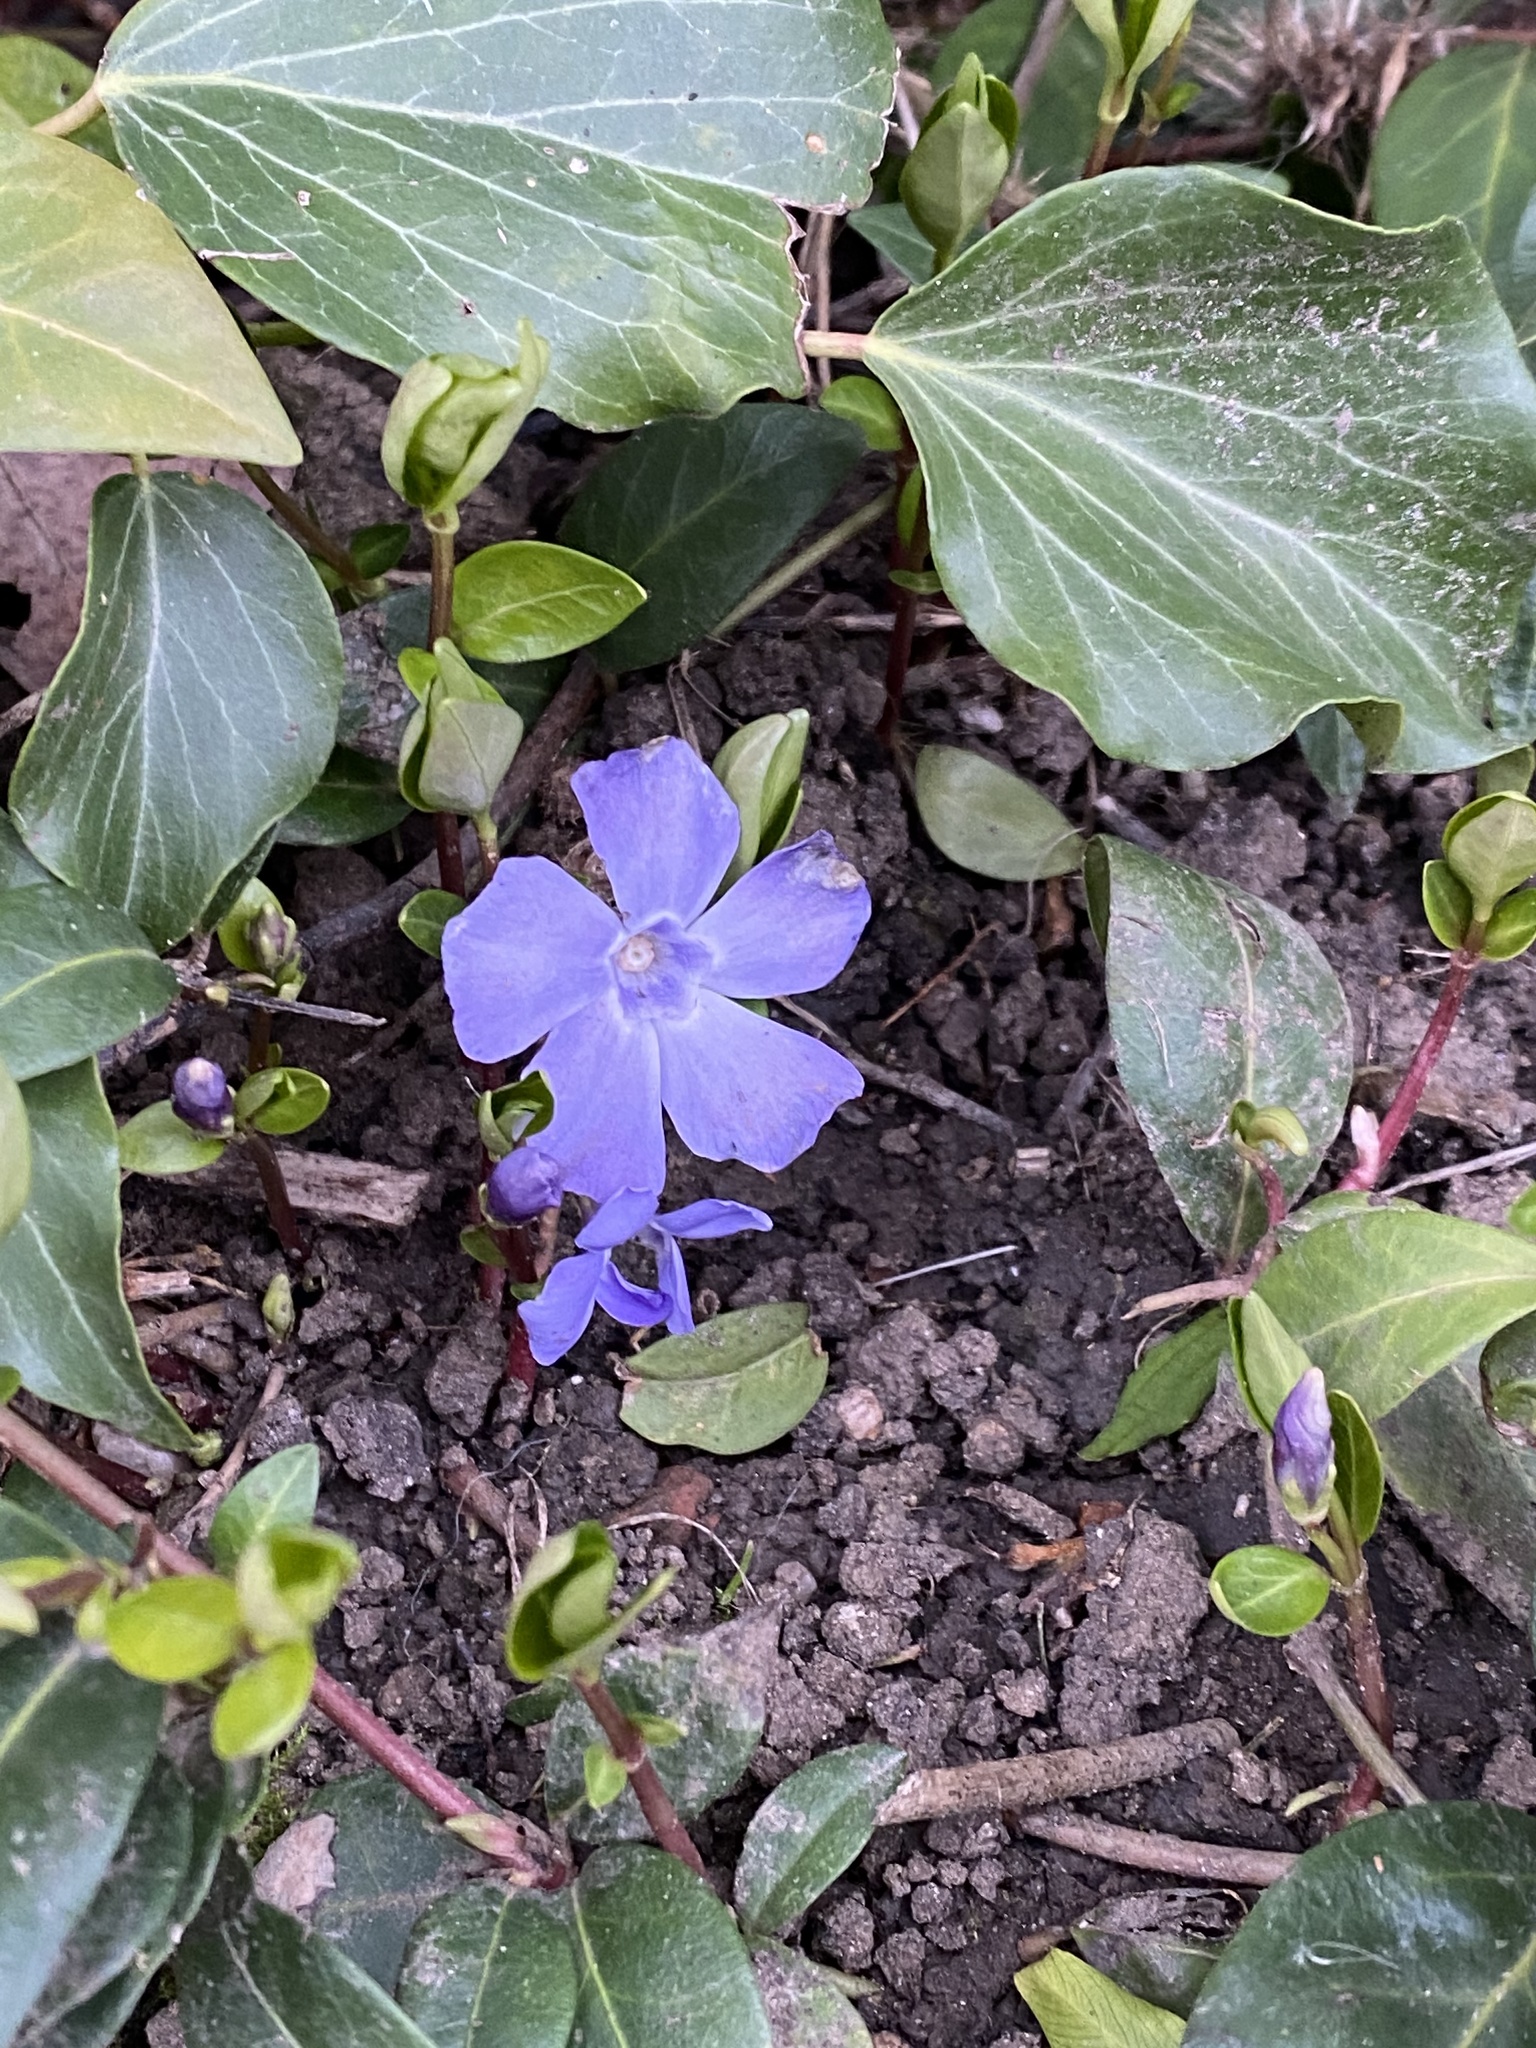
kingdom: Plantae
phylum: Tracheophyta
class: Magnoliopsida
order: Gentianales
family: Apocynaceae
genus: Vinca
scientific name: Vinca minor
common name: Lesser periwinkle
